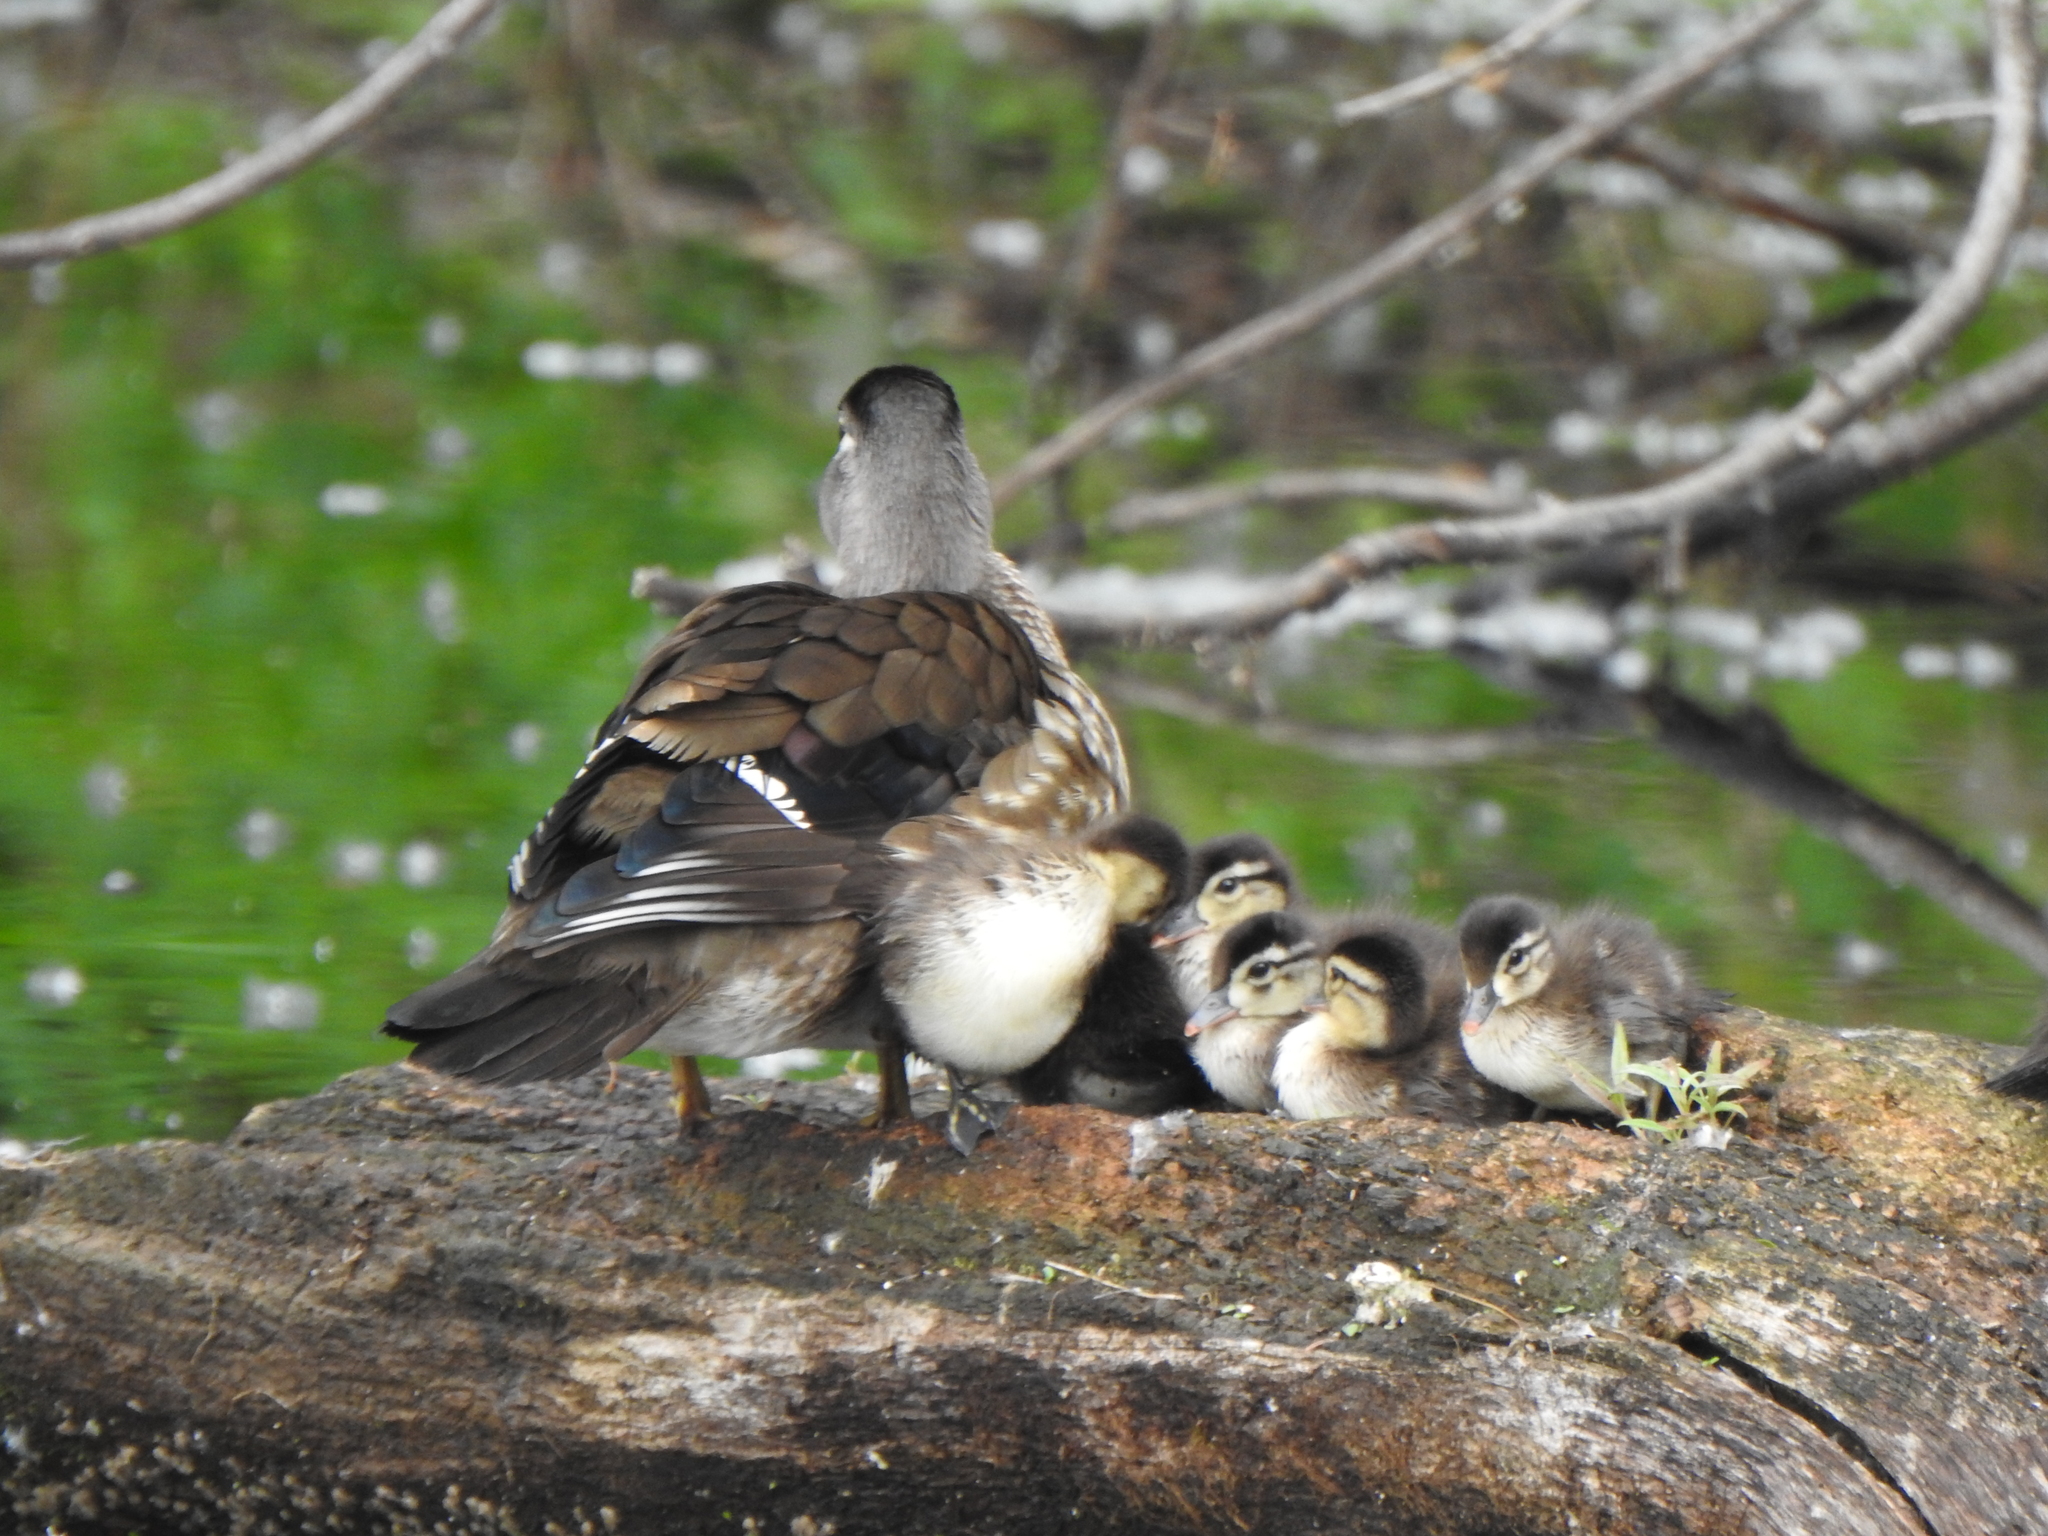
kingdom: Animalia
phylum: Chordata
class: Aves
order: Anseriformes
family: Anatidae
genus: Aix
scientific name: Aix sponsa
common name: Wood duck
